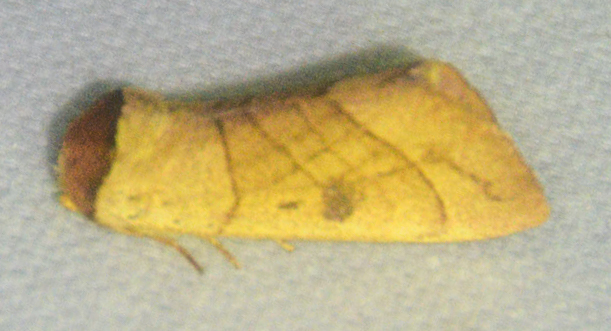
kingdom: Animalia
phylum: Arthropoda
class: Insecta
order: Lepidoptera
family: Notodontidae
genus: Datana
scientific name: Datana perspicua
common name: Spotted datana
